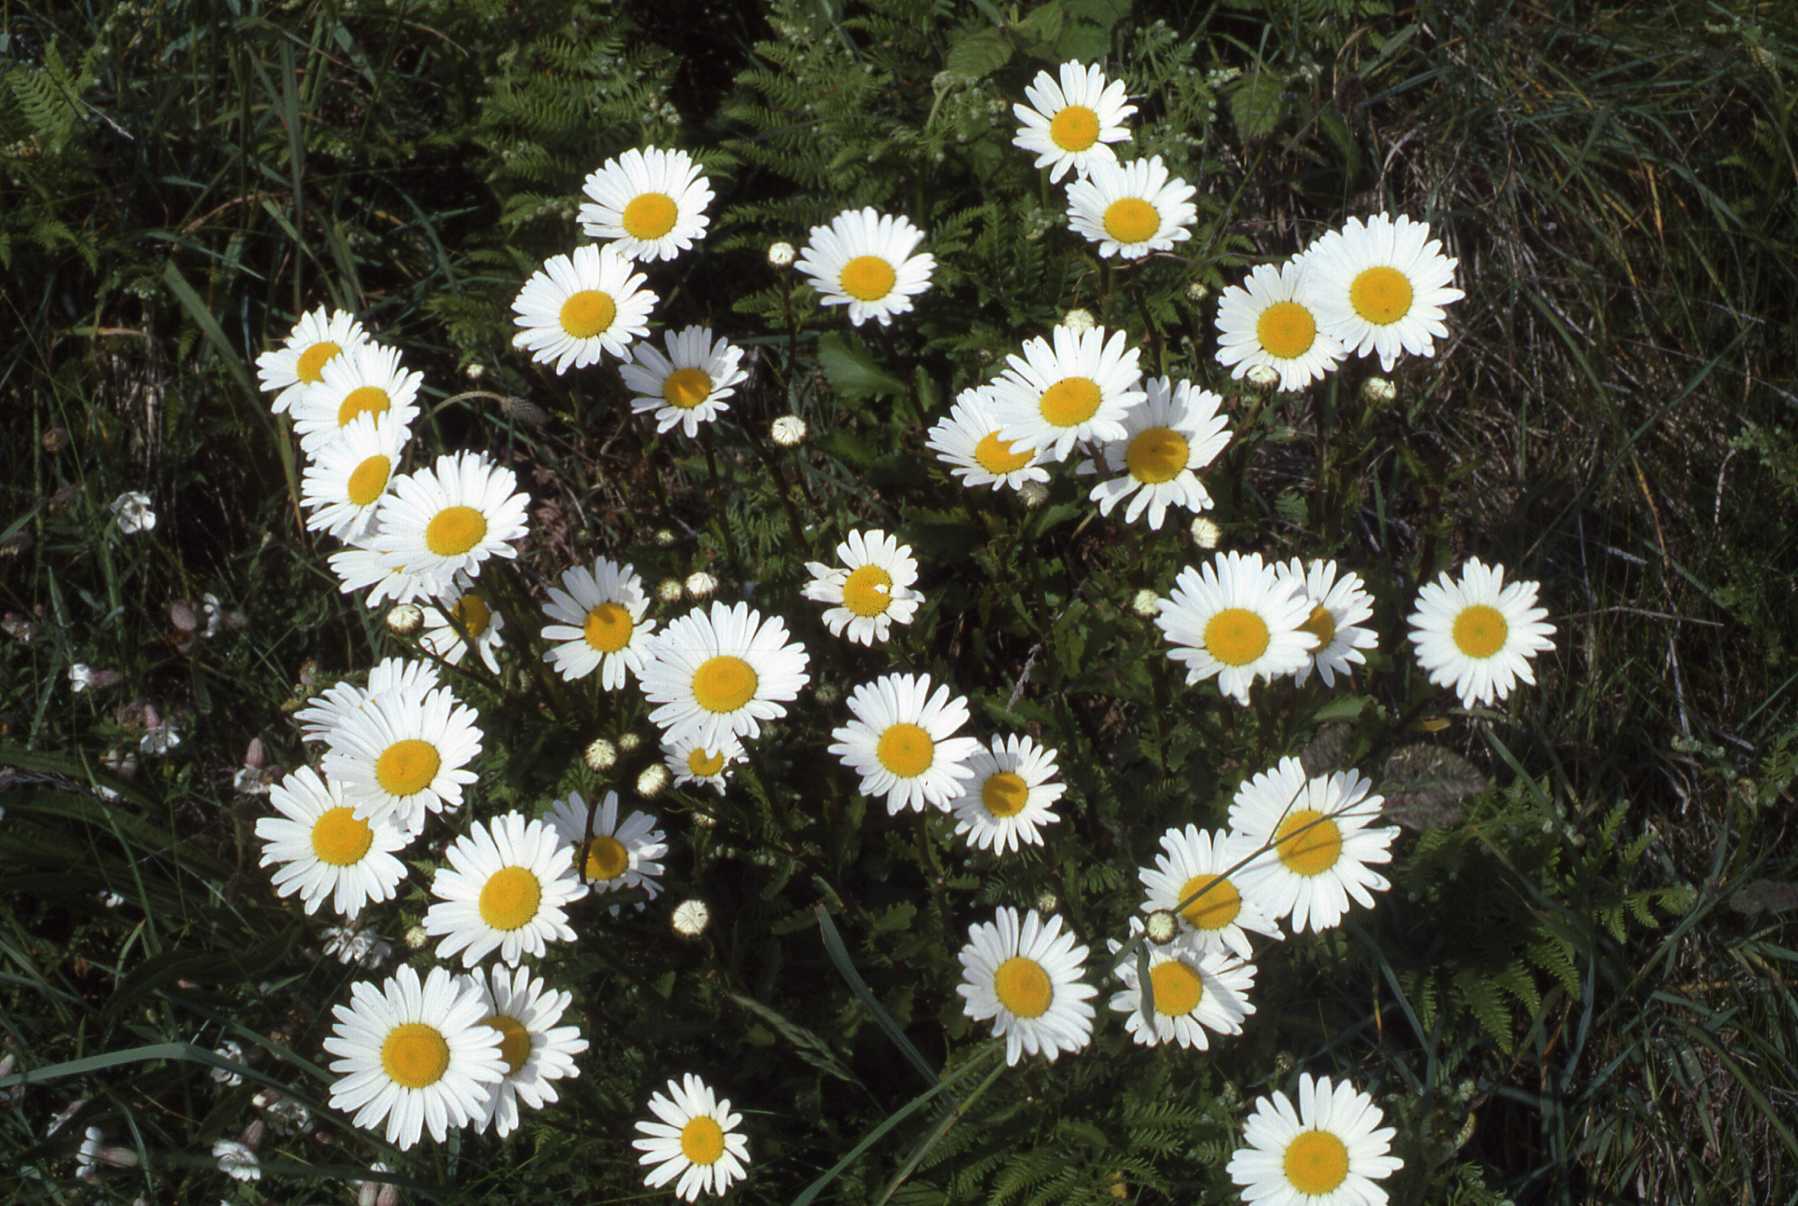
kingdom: Plantae
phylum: Tracheophyta
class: Magnoliopsida
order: Asterales
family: Asteraceae
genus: Leucanthemum
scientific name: Leucanthemum vulgare
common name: Oxeye daisy
